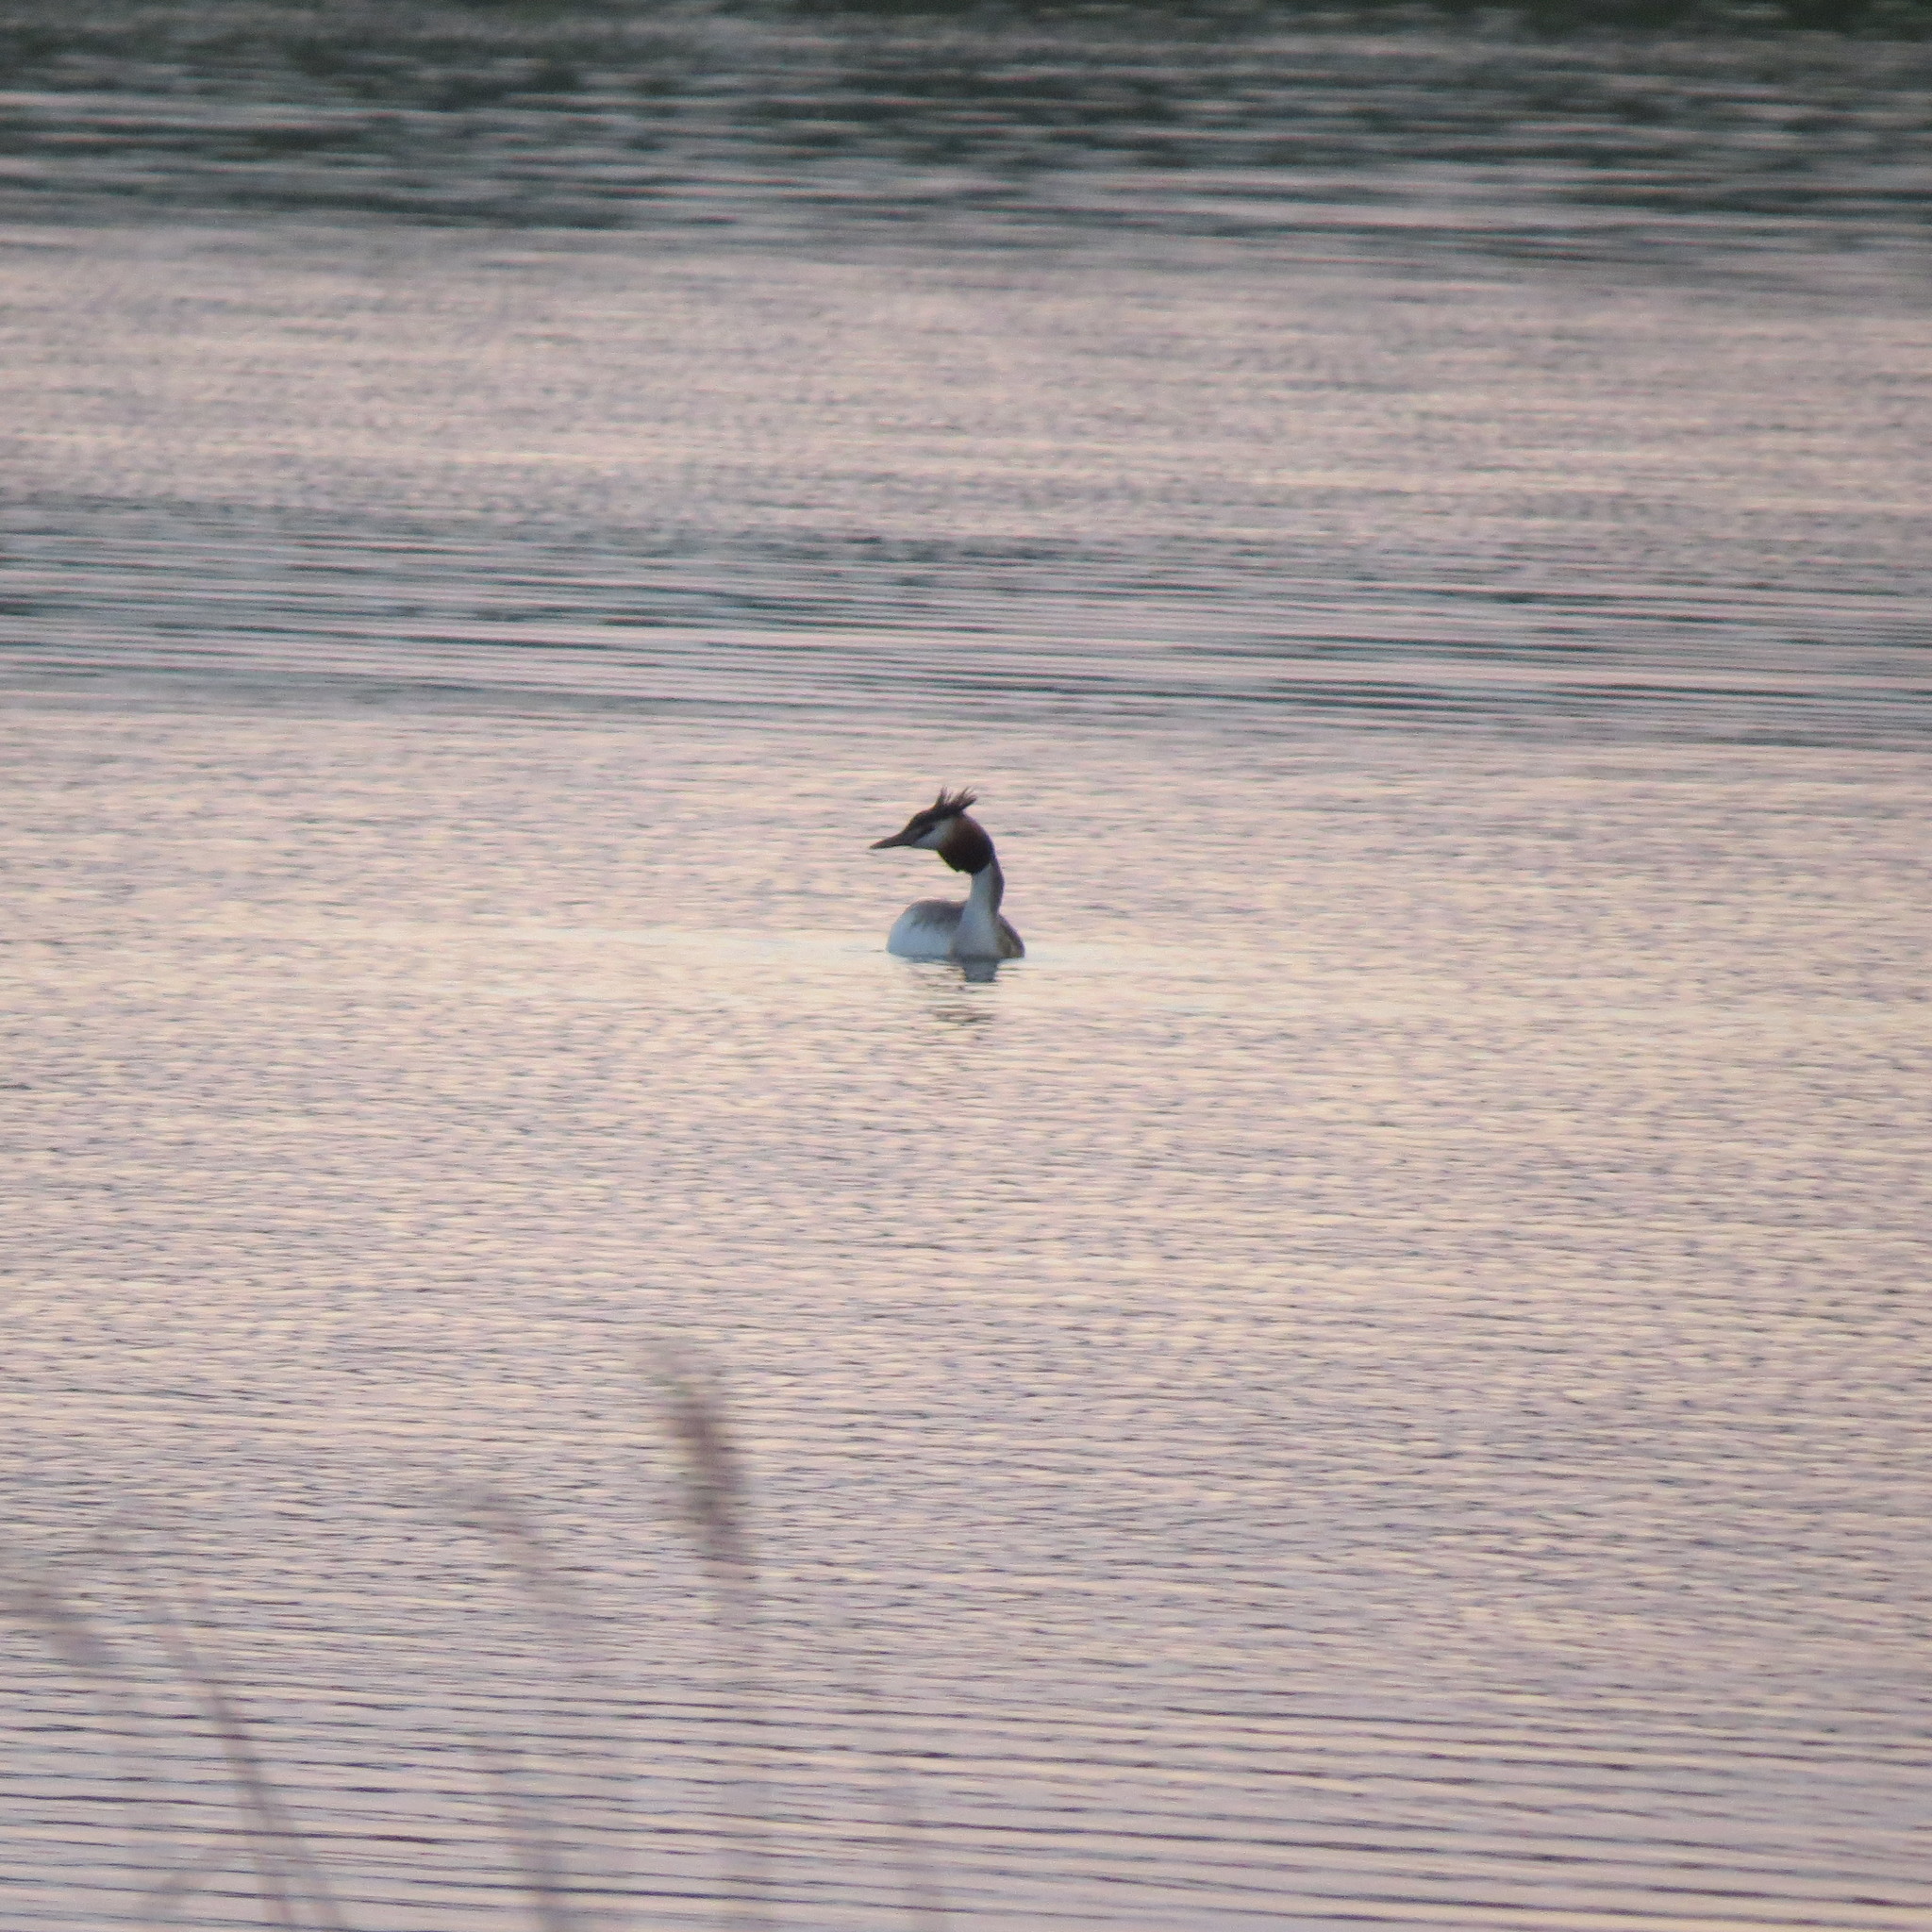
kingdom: Animalia
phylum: Chordata
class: Aves
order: Podicipediformes
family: Podicipedidae
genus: Podiceps
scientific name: Podiceps cristatus
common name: Great crested grebe
